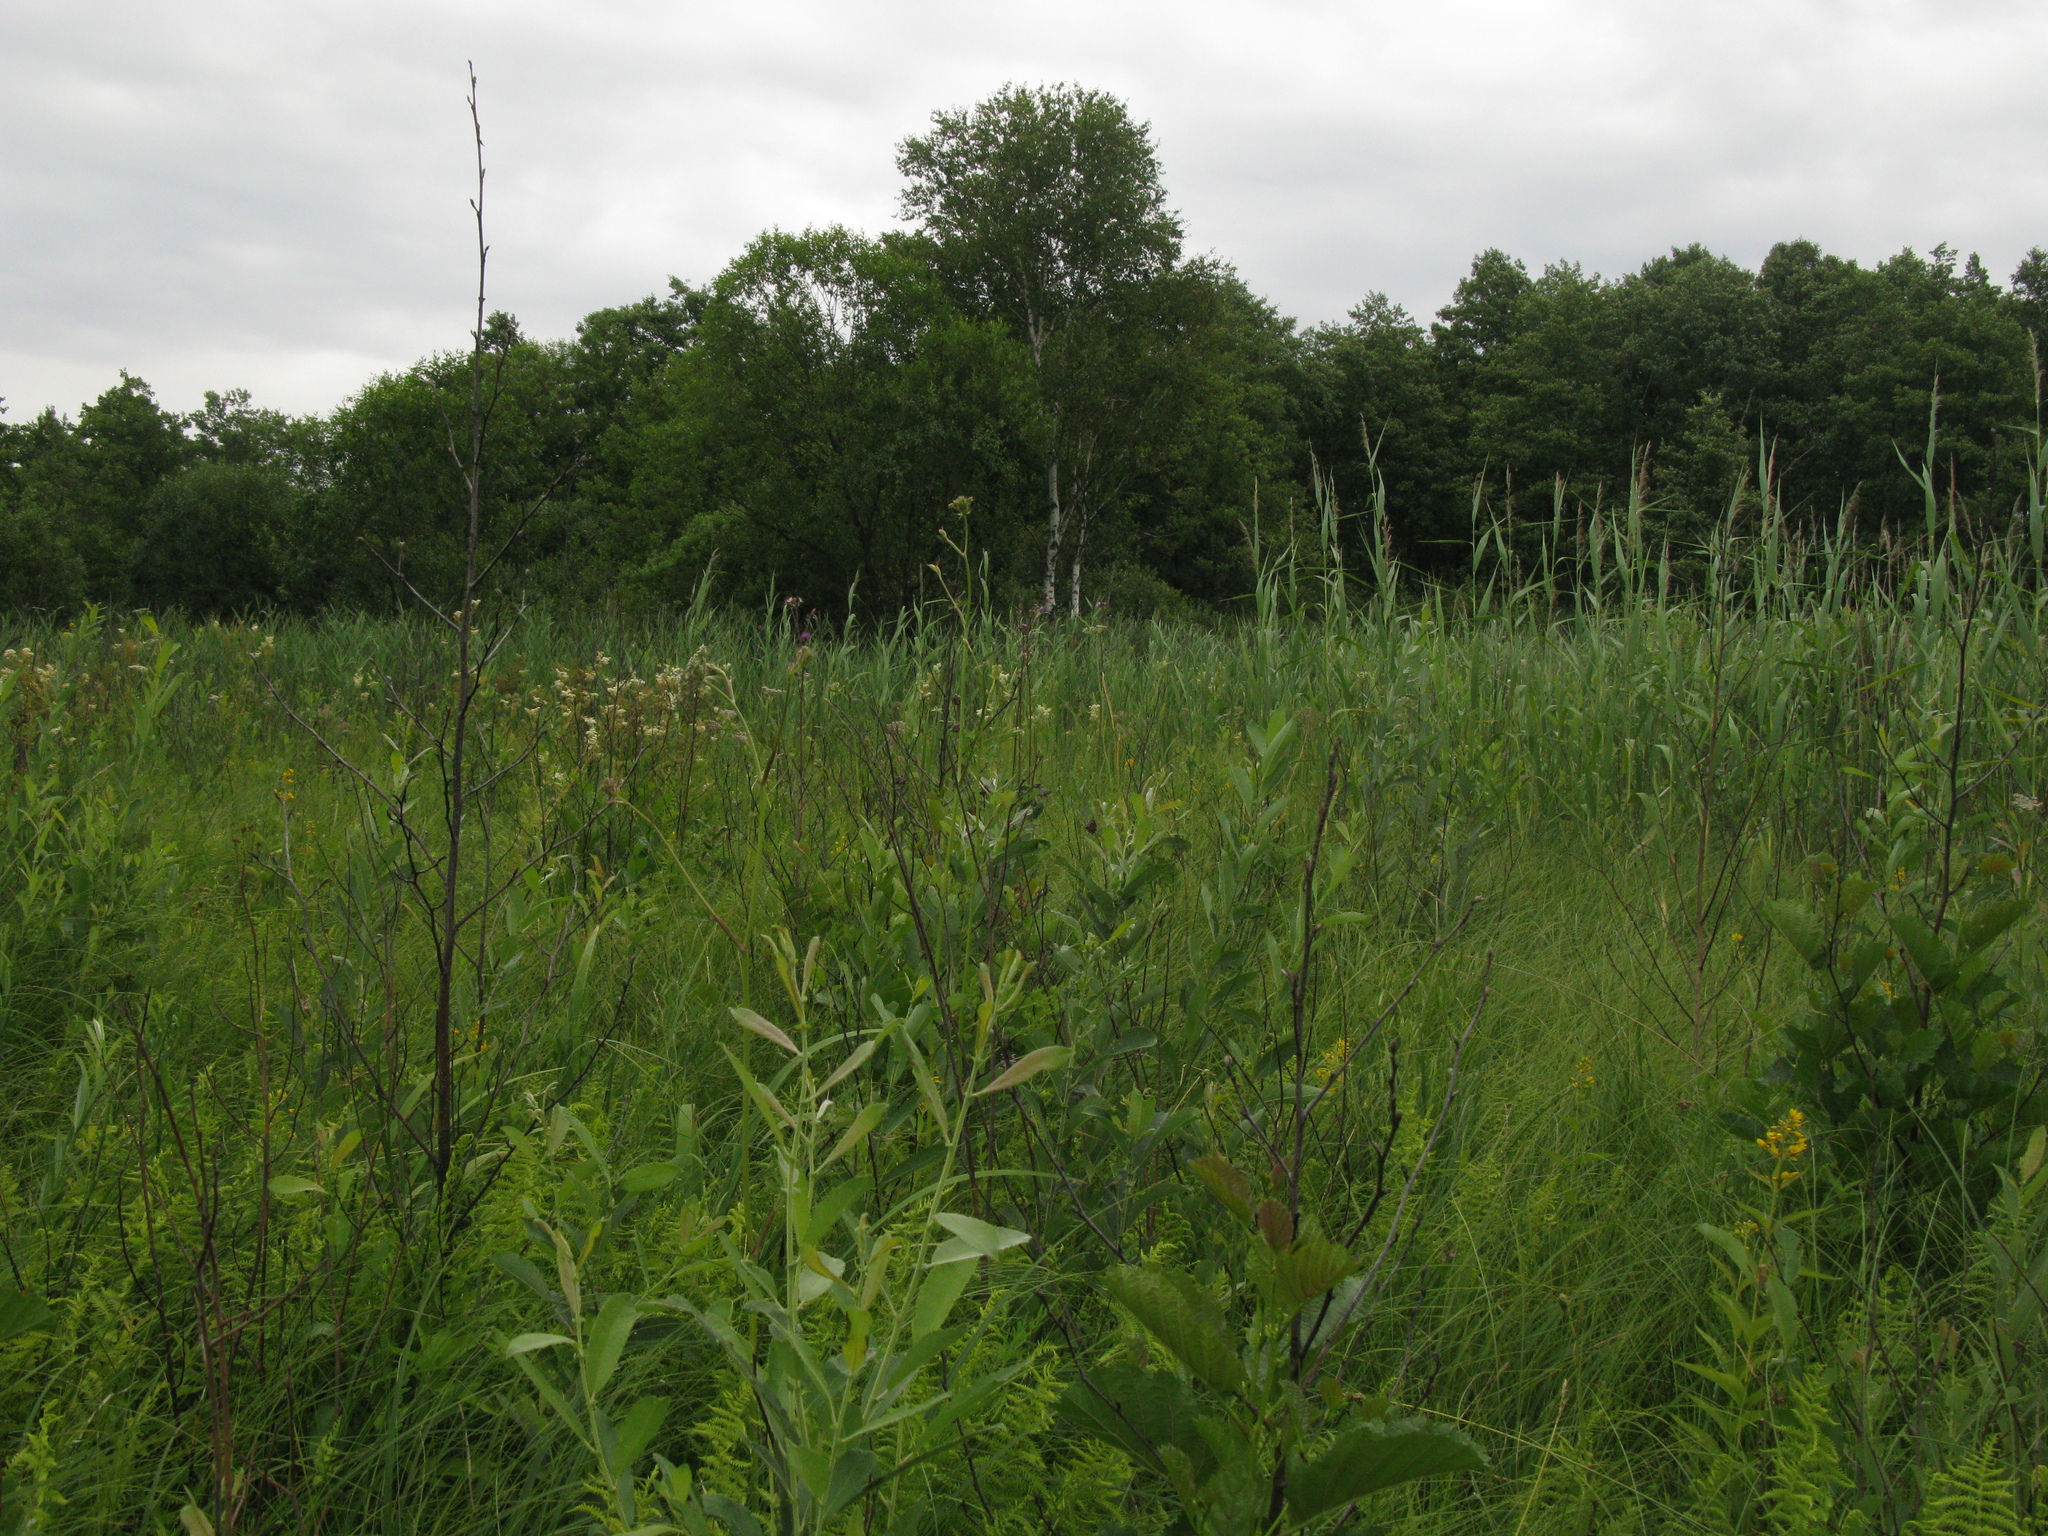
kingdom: Plantae
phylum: Tracheophyta
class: Magnoliopsida
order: Fagales
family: Betulaceae
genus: Alnus
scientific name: Alnus glutinosa
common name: Black alder
